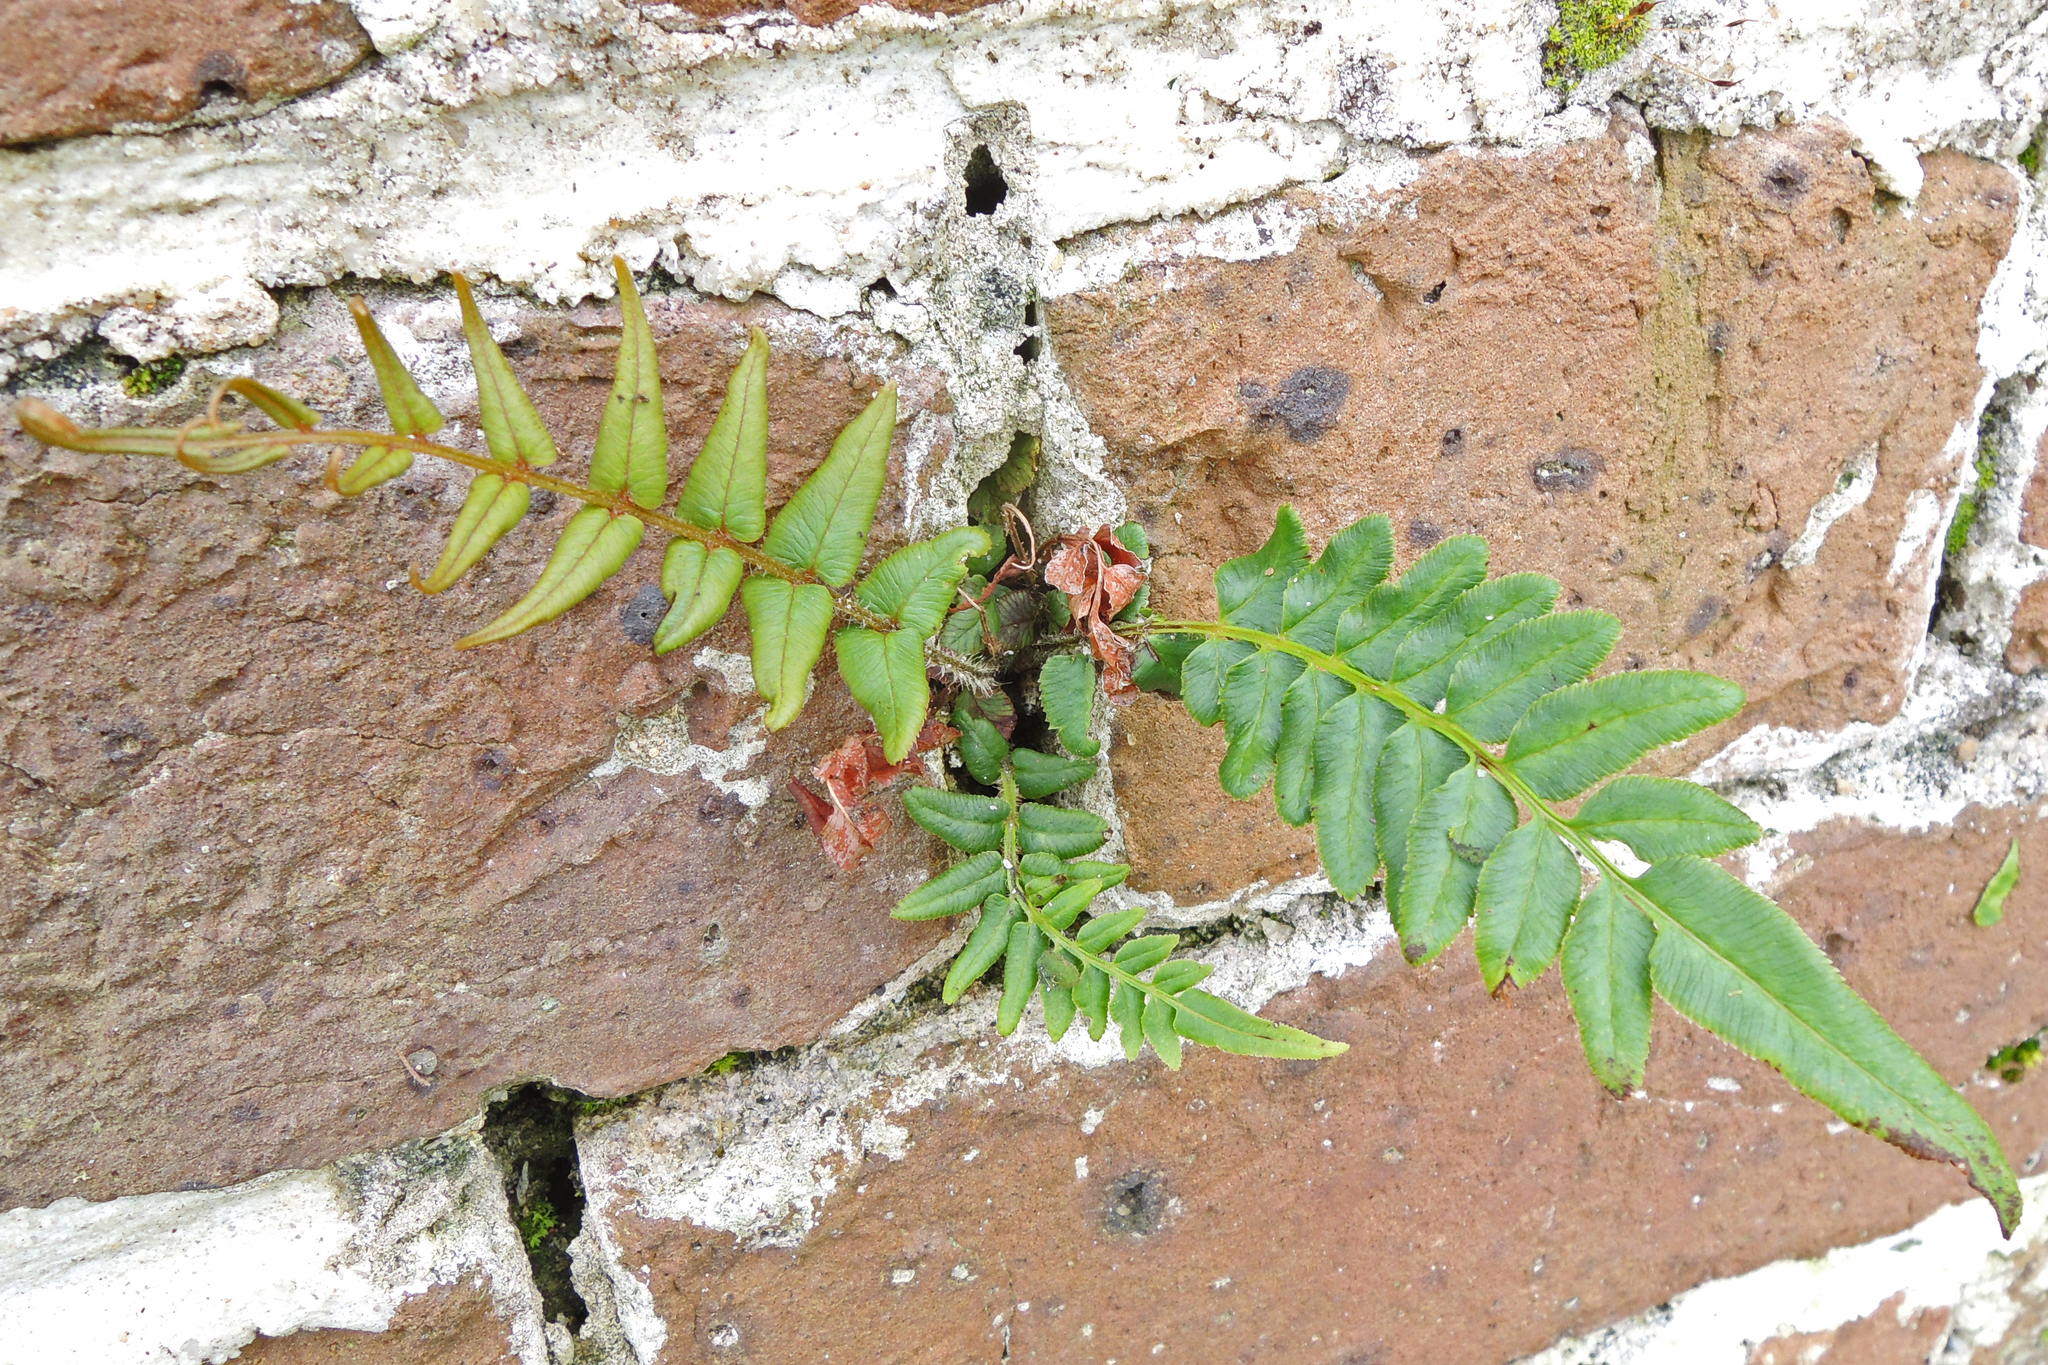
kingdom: Plantae
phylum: Tracheophyta
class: Polypodiopsida
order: Polypodiales
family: Pteridaceae
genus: Pteris
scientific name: Pteris vittata
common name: Ladder brake
